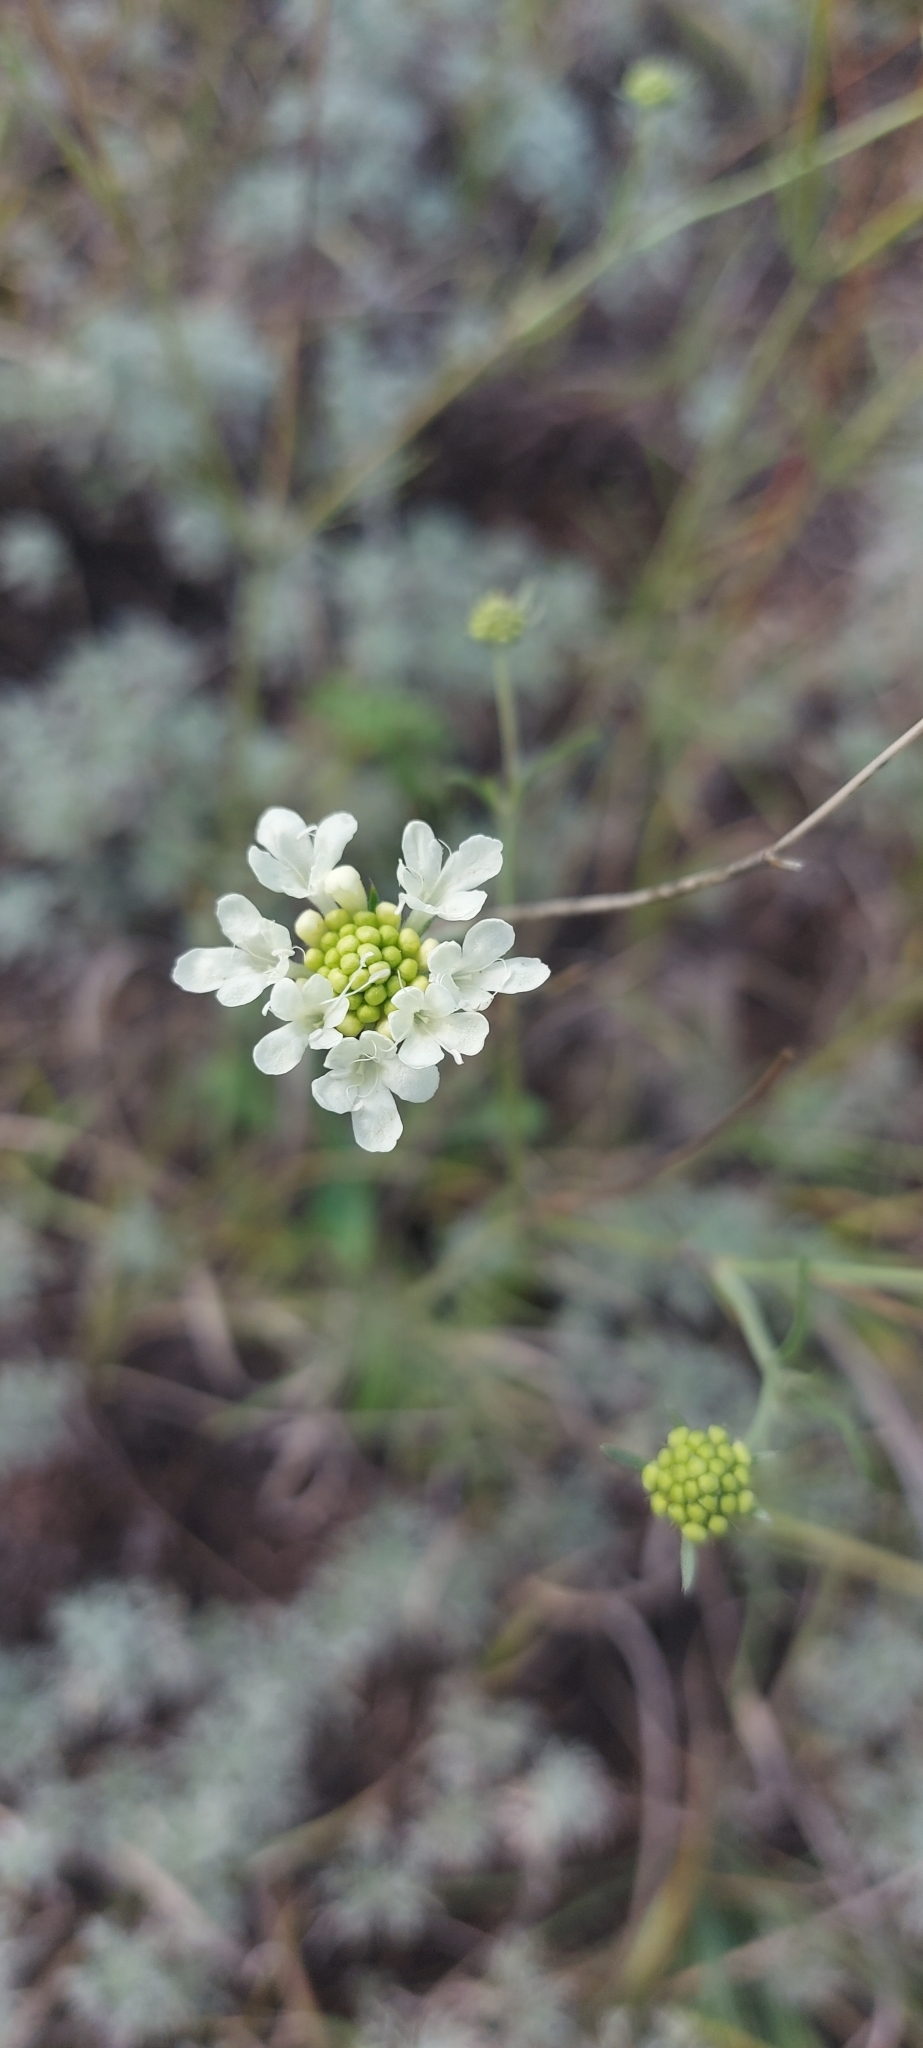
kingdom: Plantae
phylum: Tracheophyta
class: Magnoliopsida
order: Dipsacales
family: Caprifoliaceae
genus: Scabiosa
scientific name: Scabiosa ochroleuca
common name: Cream pincushions
